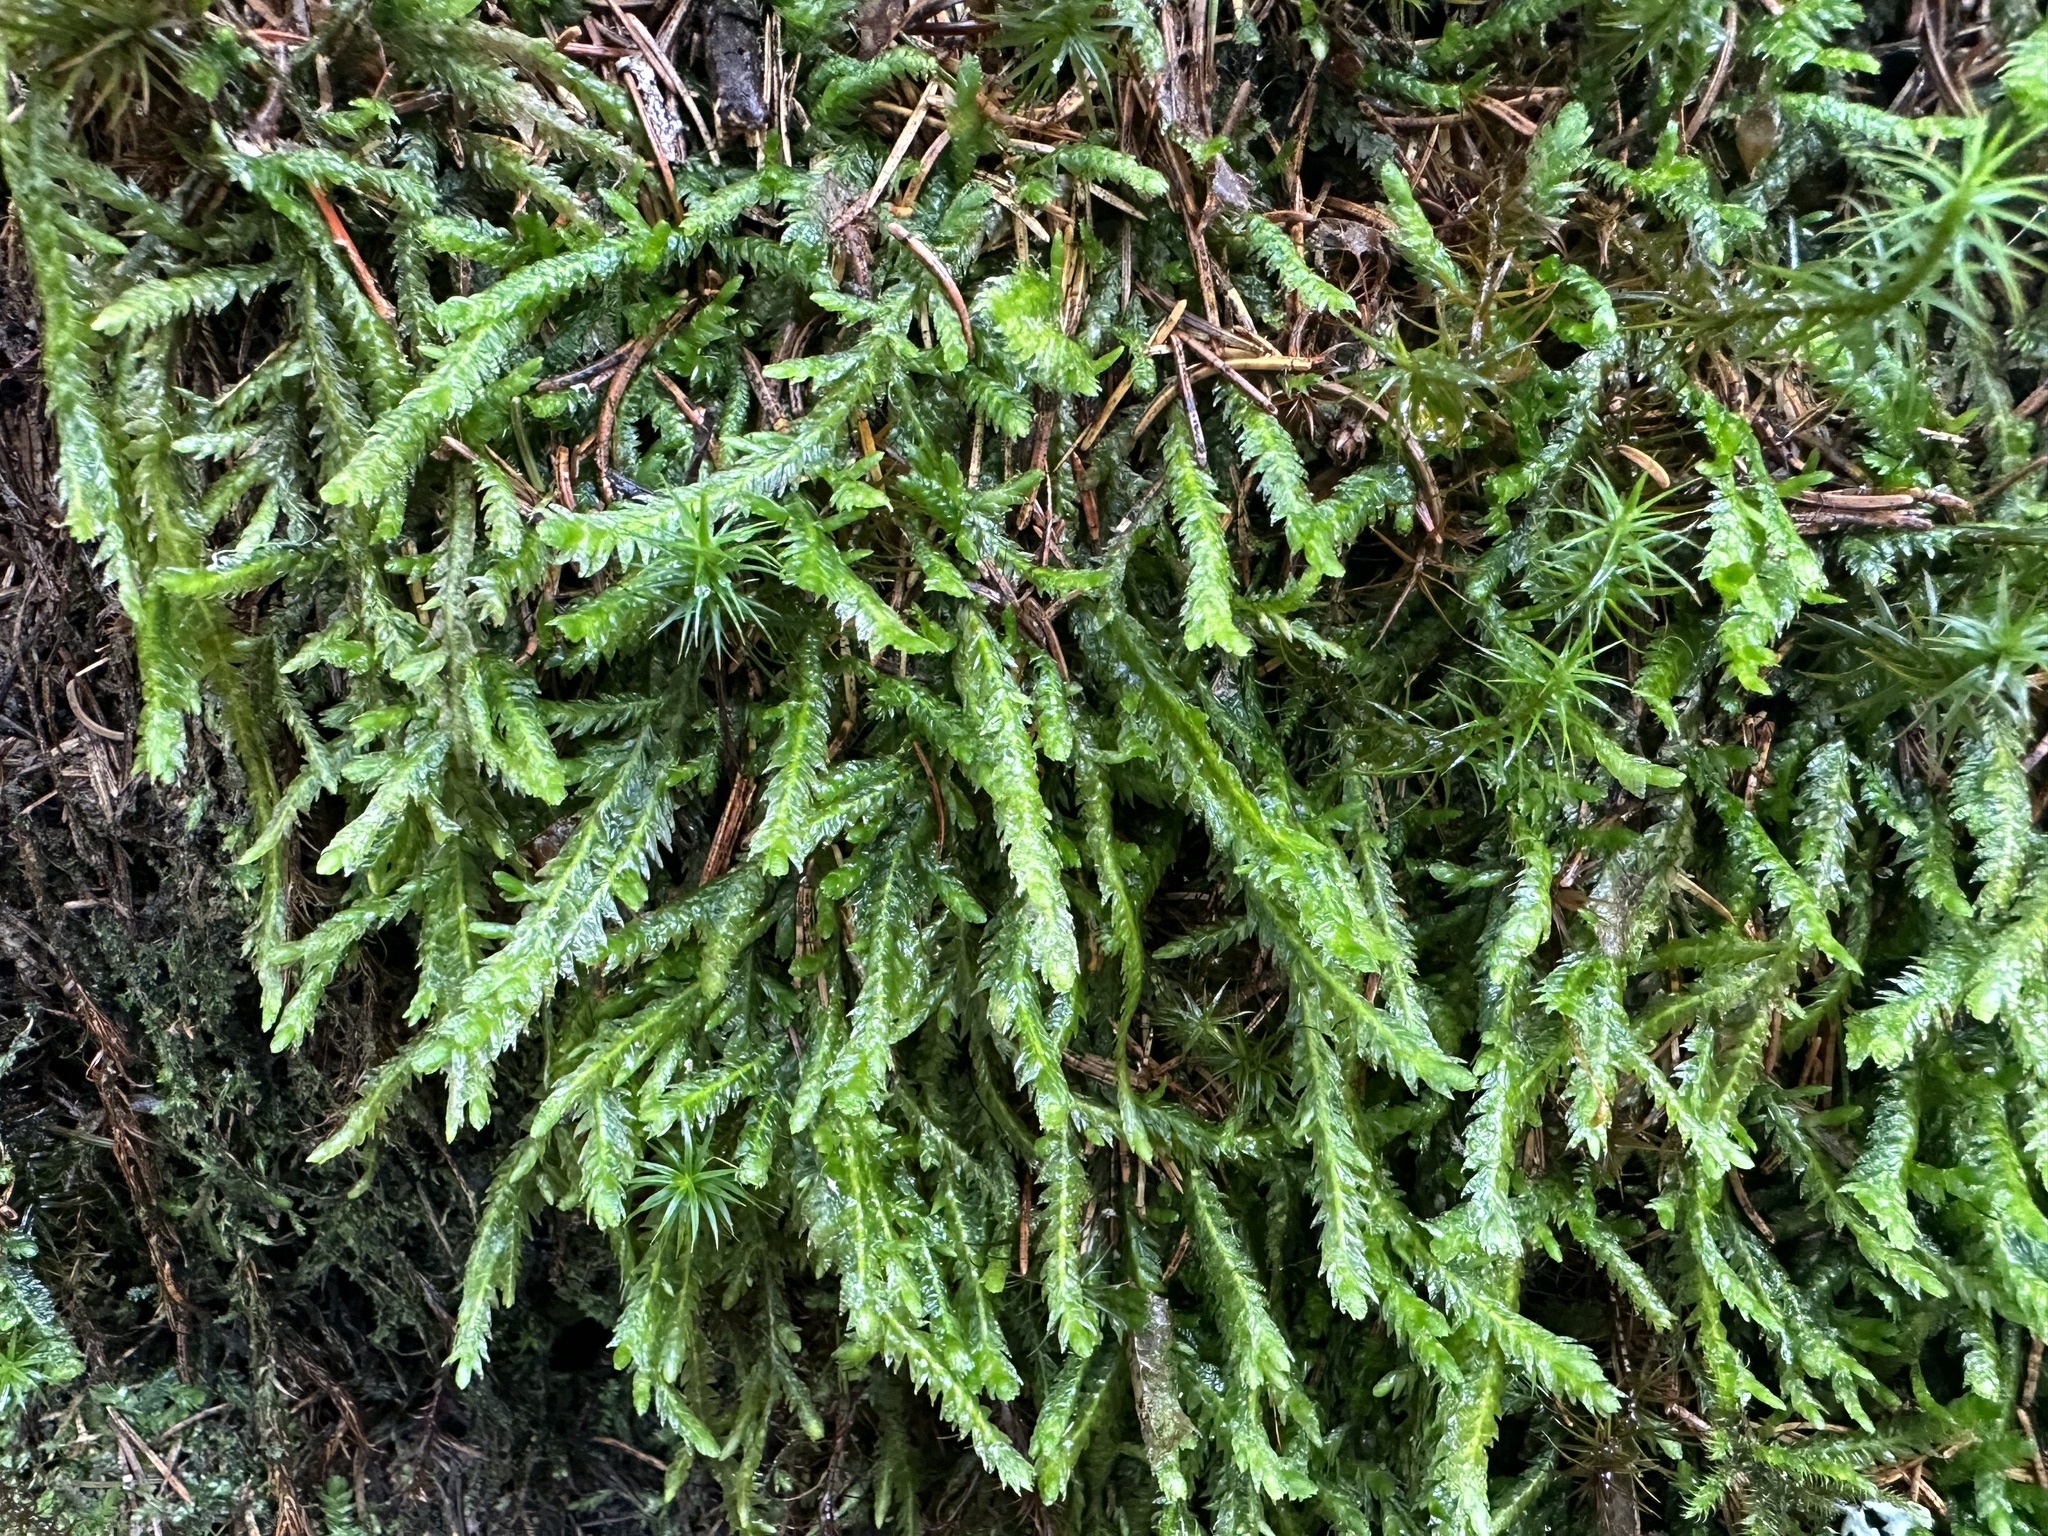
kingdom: Plantae
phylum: Bryophyta
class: Bryopsida
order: Hypnales
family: Plagiotheciaceae
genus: Plagiothecium
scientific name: Plagiothecium undulatum
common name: Waved silk-moss
